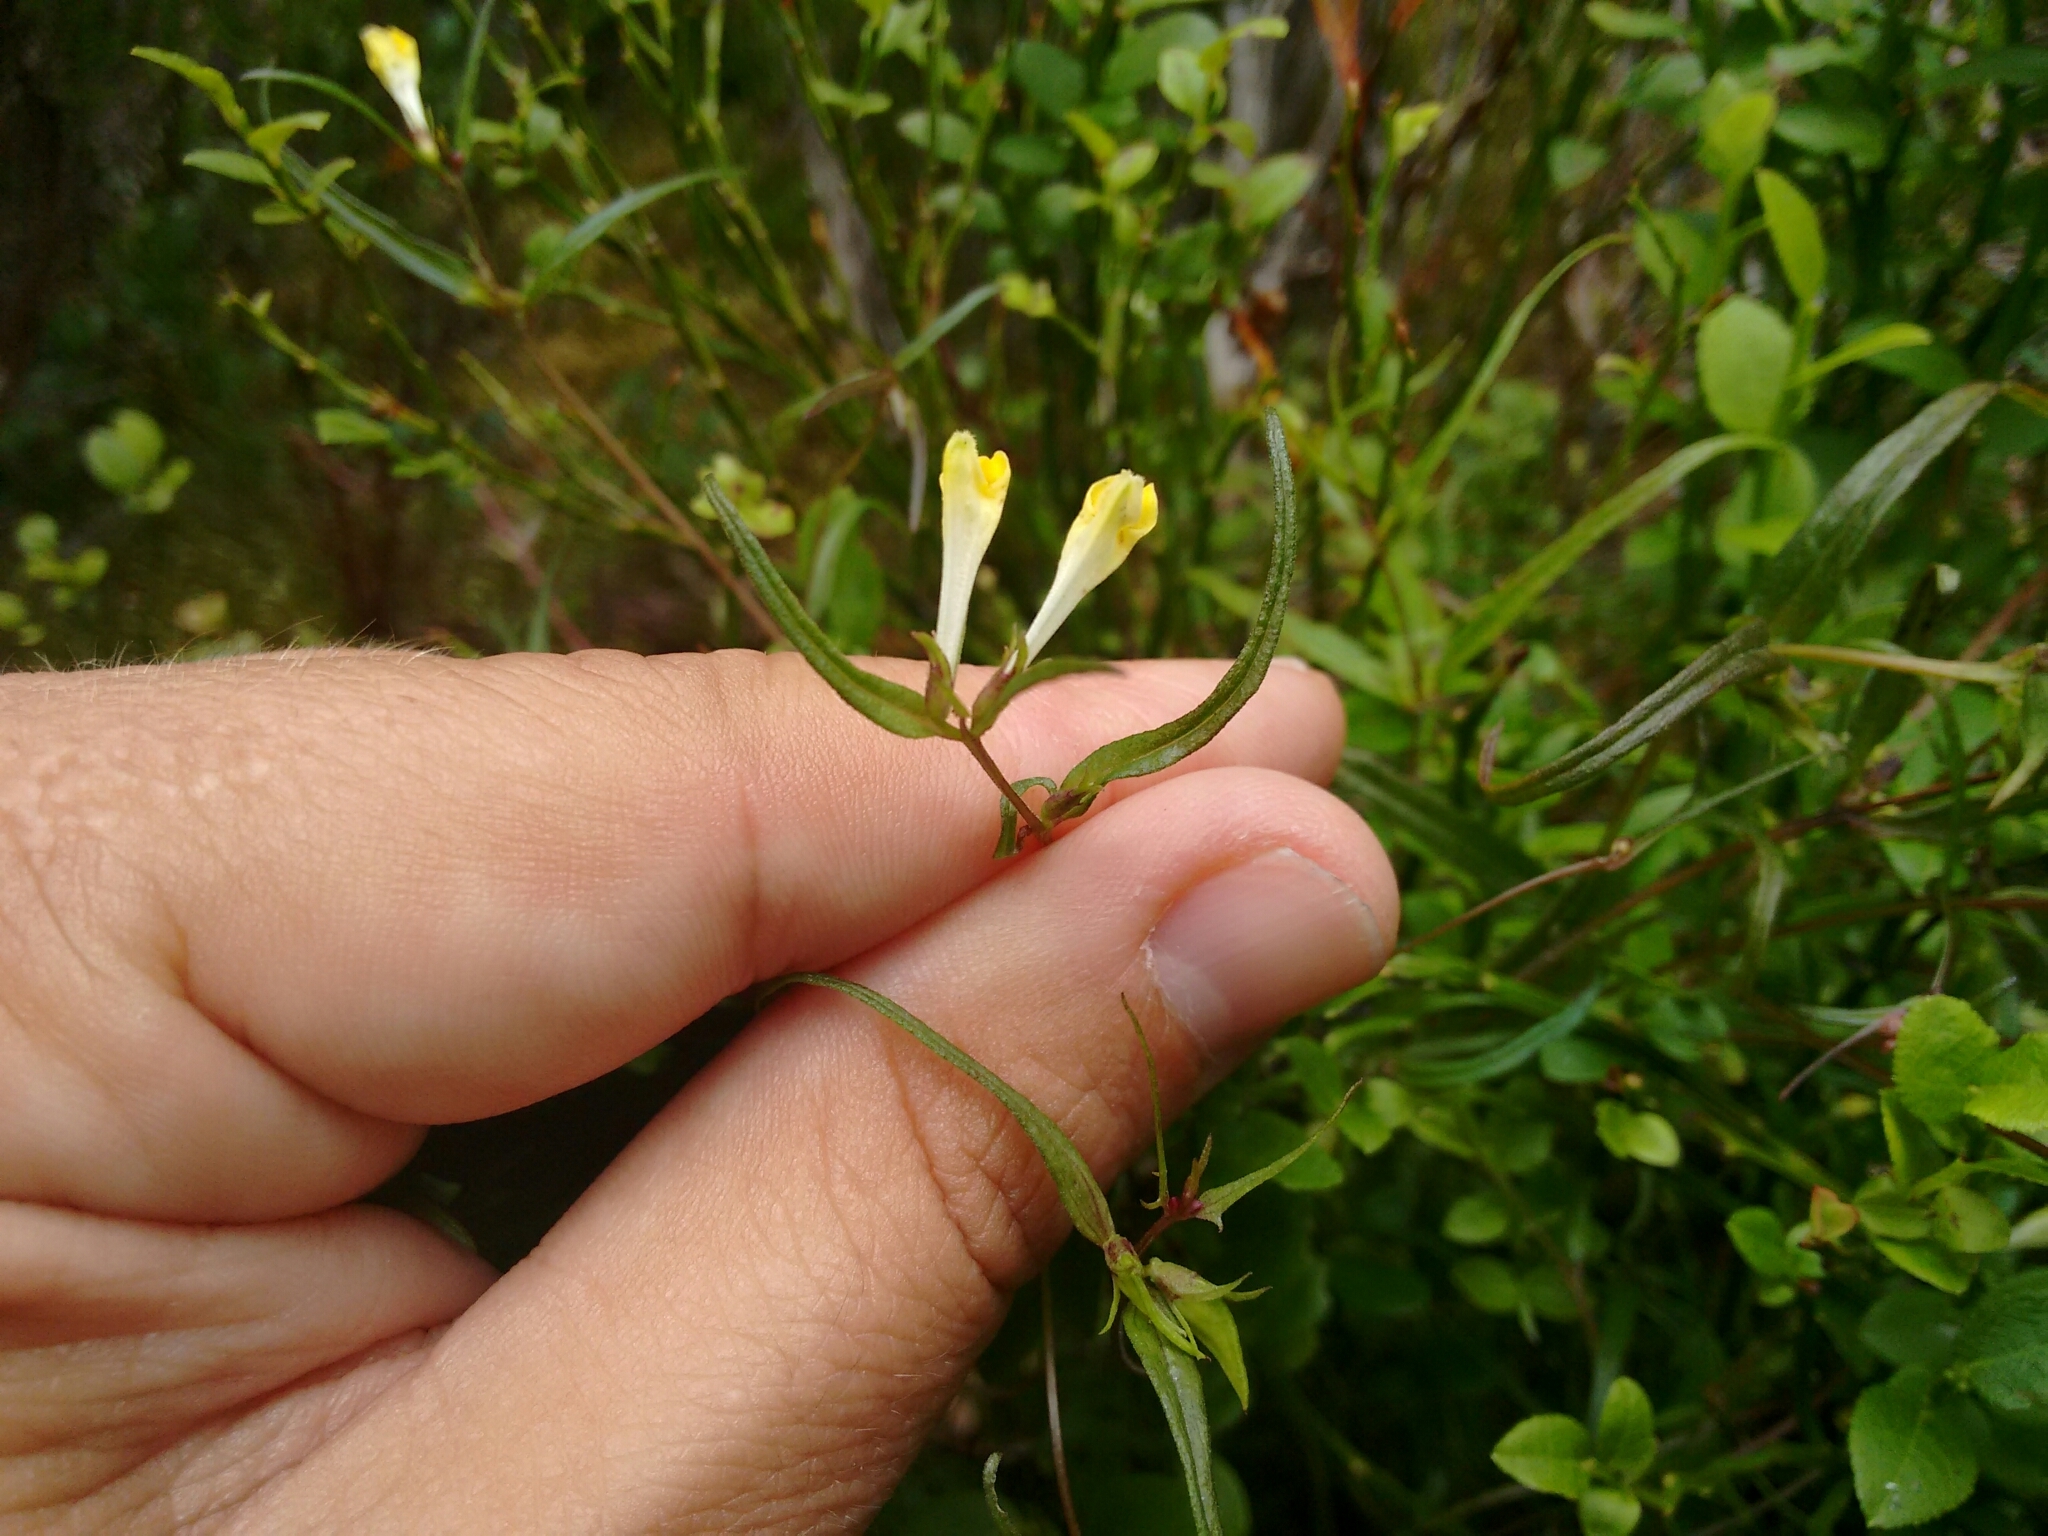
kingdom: Plantae
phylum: Tracheophyta
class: Magnoliopsida
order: Lamiales
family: Orobanchaceae
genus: Melampyrum
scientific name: Melampyrum pratense
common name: Common cow-wheat
